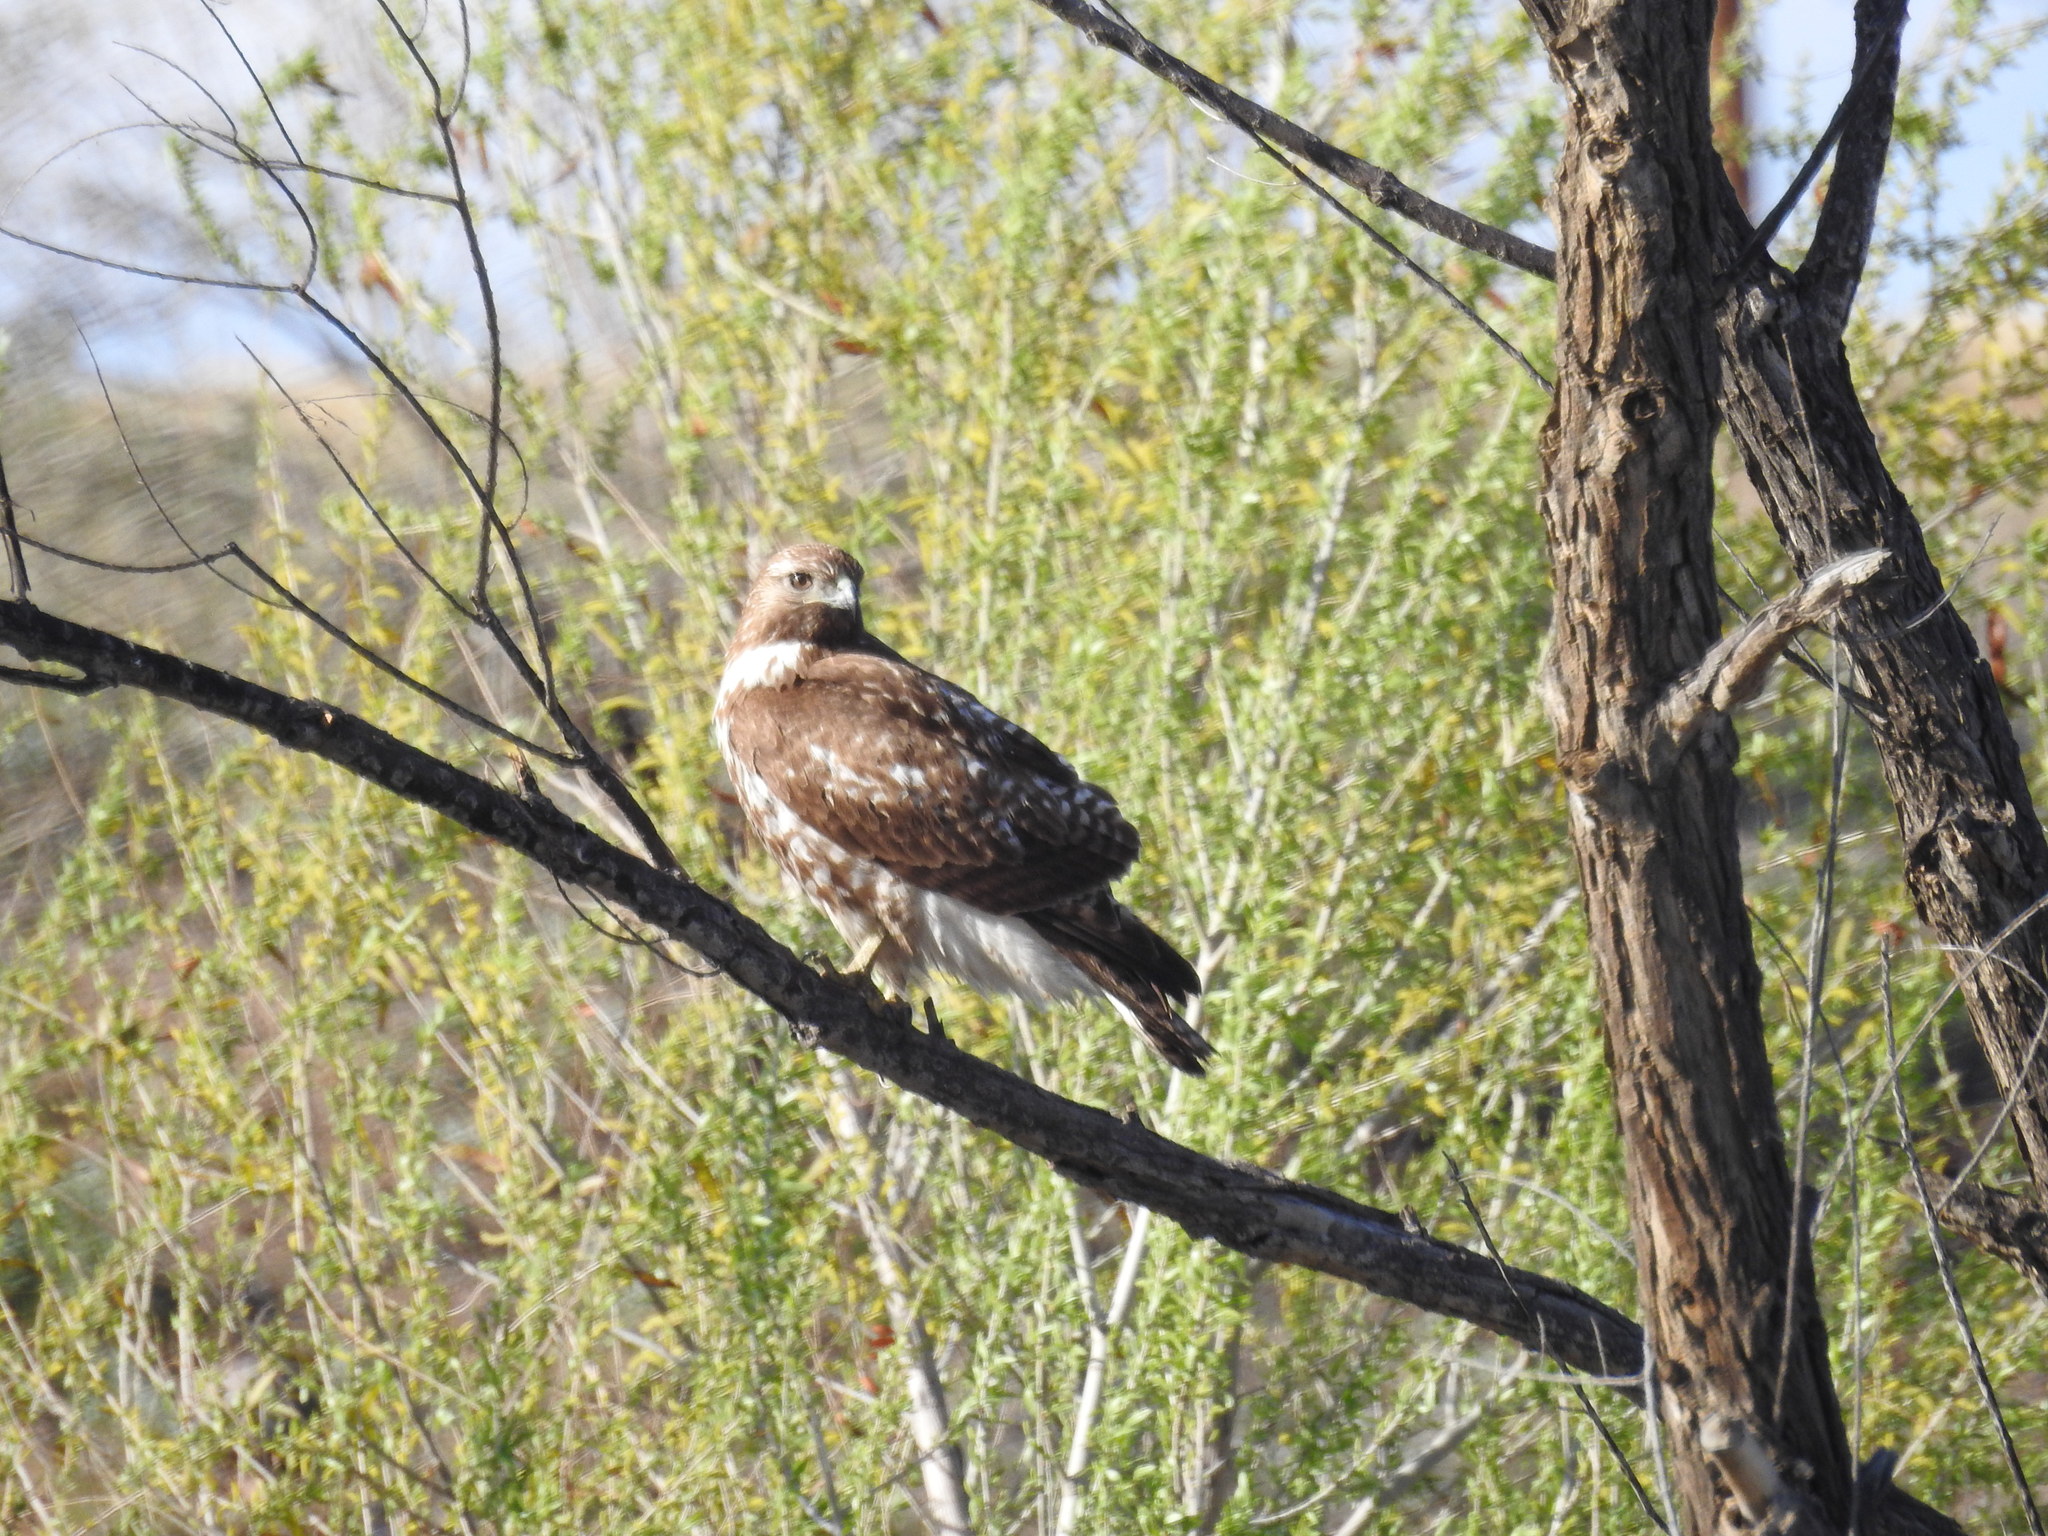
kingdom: Animalia
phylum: Chordata
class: Aves
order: Accipitriformes
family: Accipitridae
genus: Buteo
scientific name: Buteo jamaicensis
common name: Red-tailed hawk
